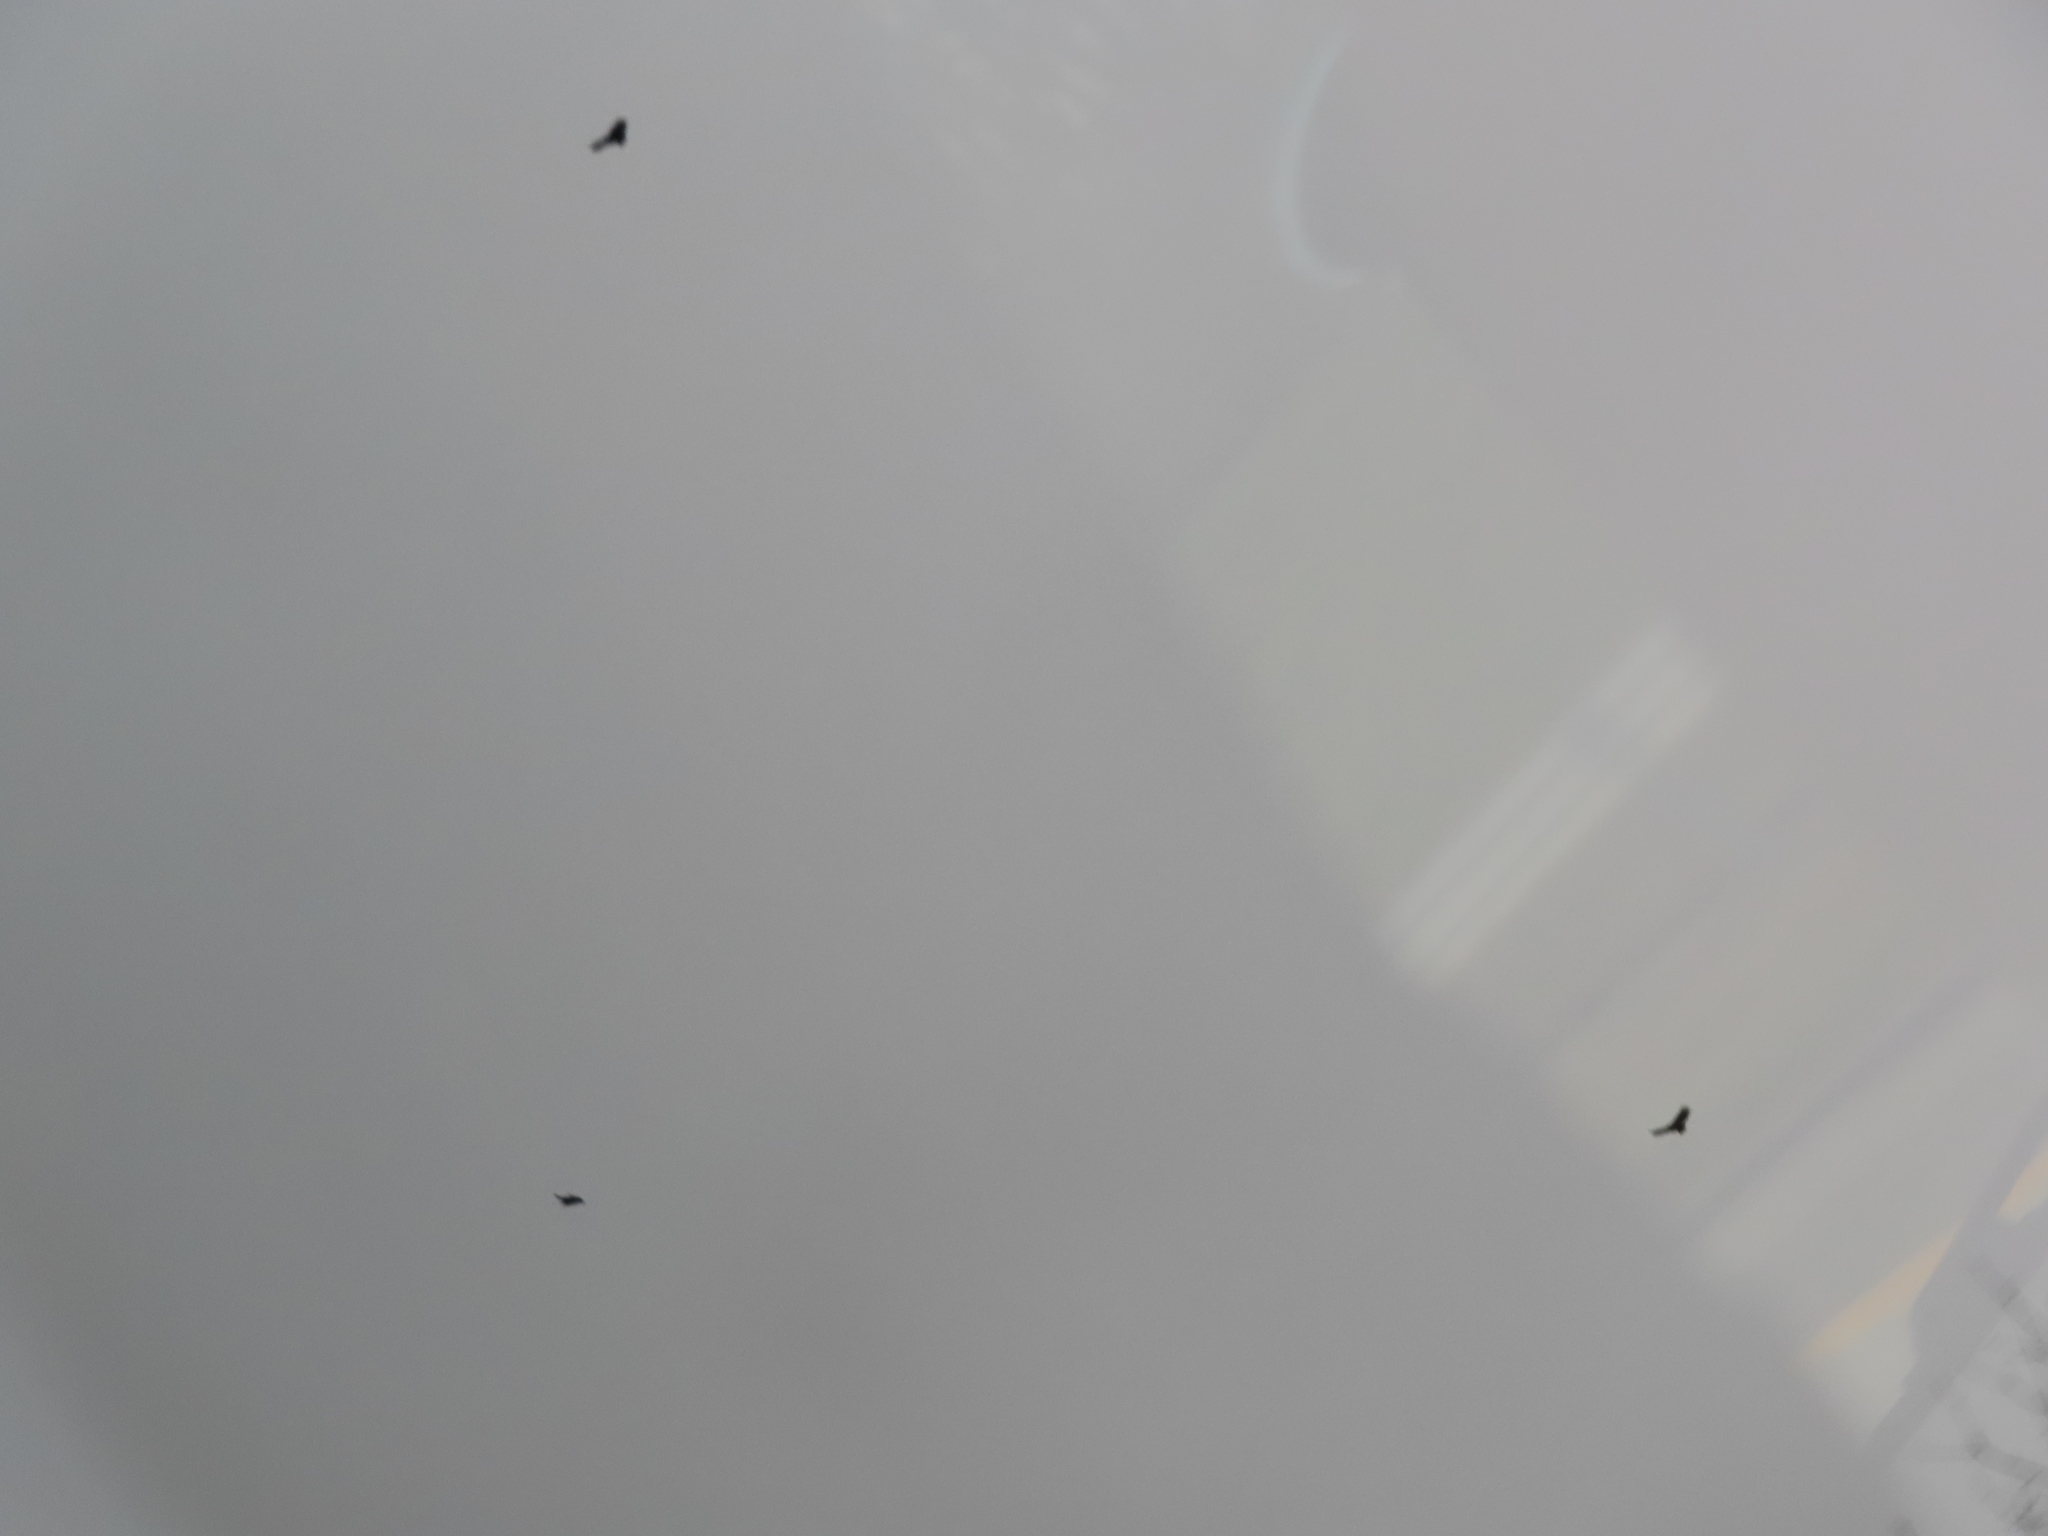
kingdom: Animalia
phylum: Chordata
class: Aves
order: Accipitriformes
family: Cathartidae
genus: Cathartes
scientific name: Cathartes aura
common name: Turkey vulture
